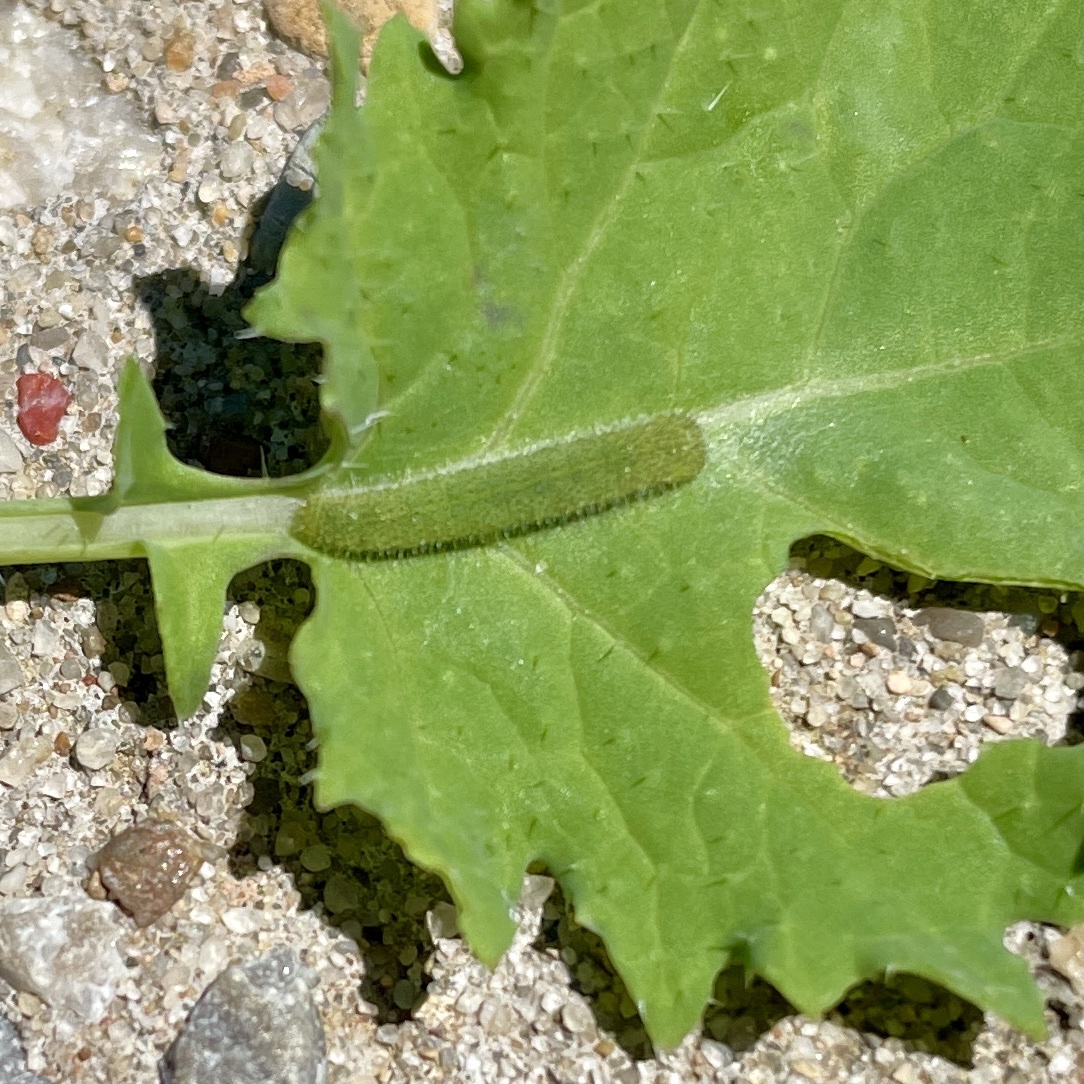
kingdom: Animalia
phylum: Arthropoda
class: Insecta
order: Lepidoptera
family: Pieridae
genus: Pieris
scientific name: Pieris rapae
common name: Small white
